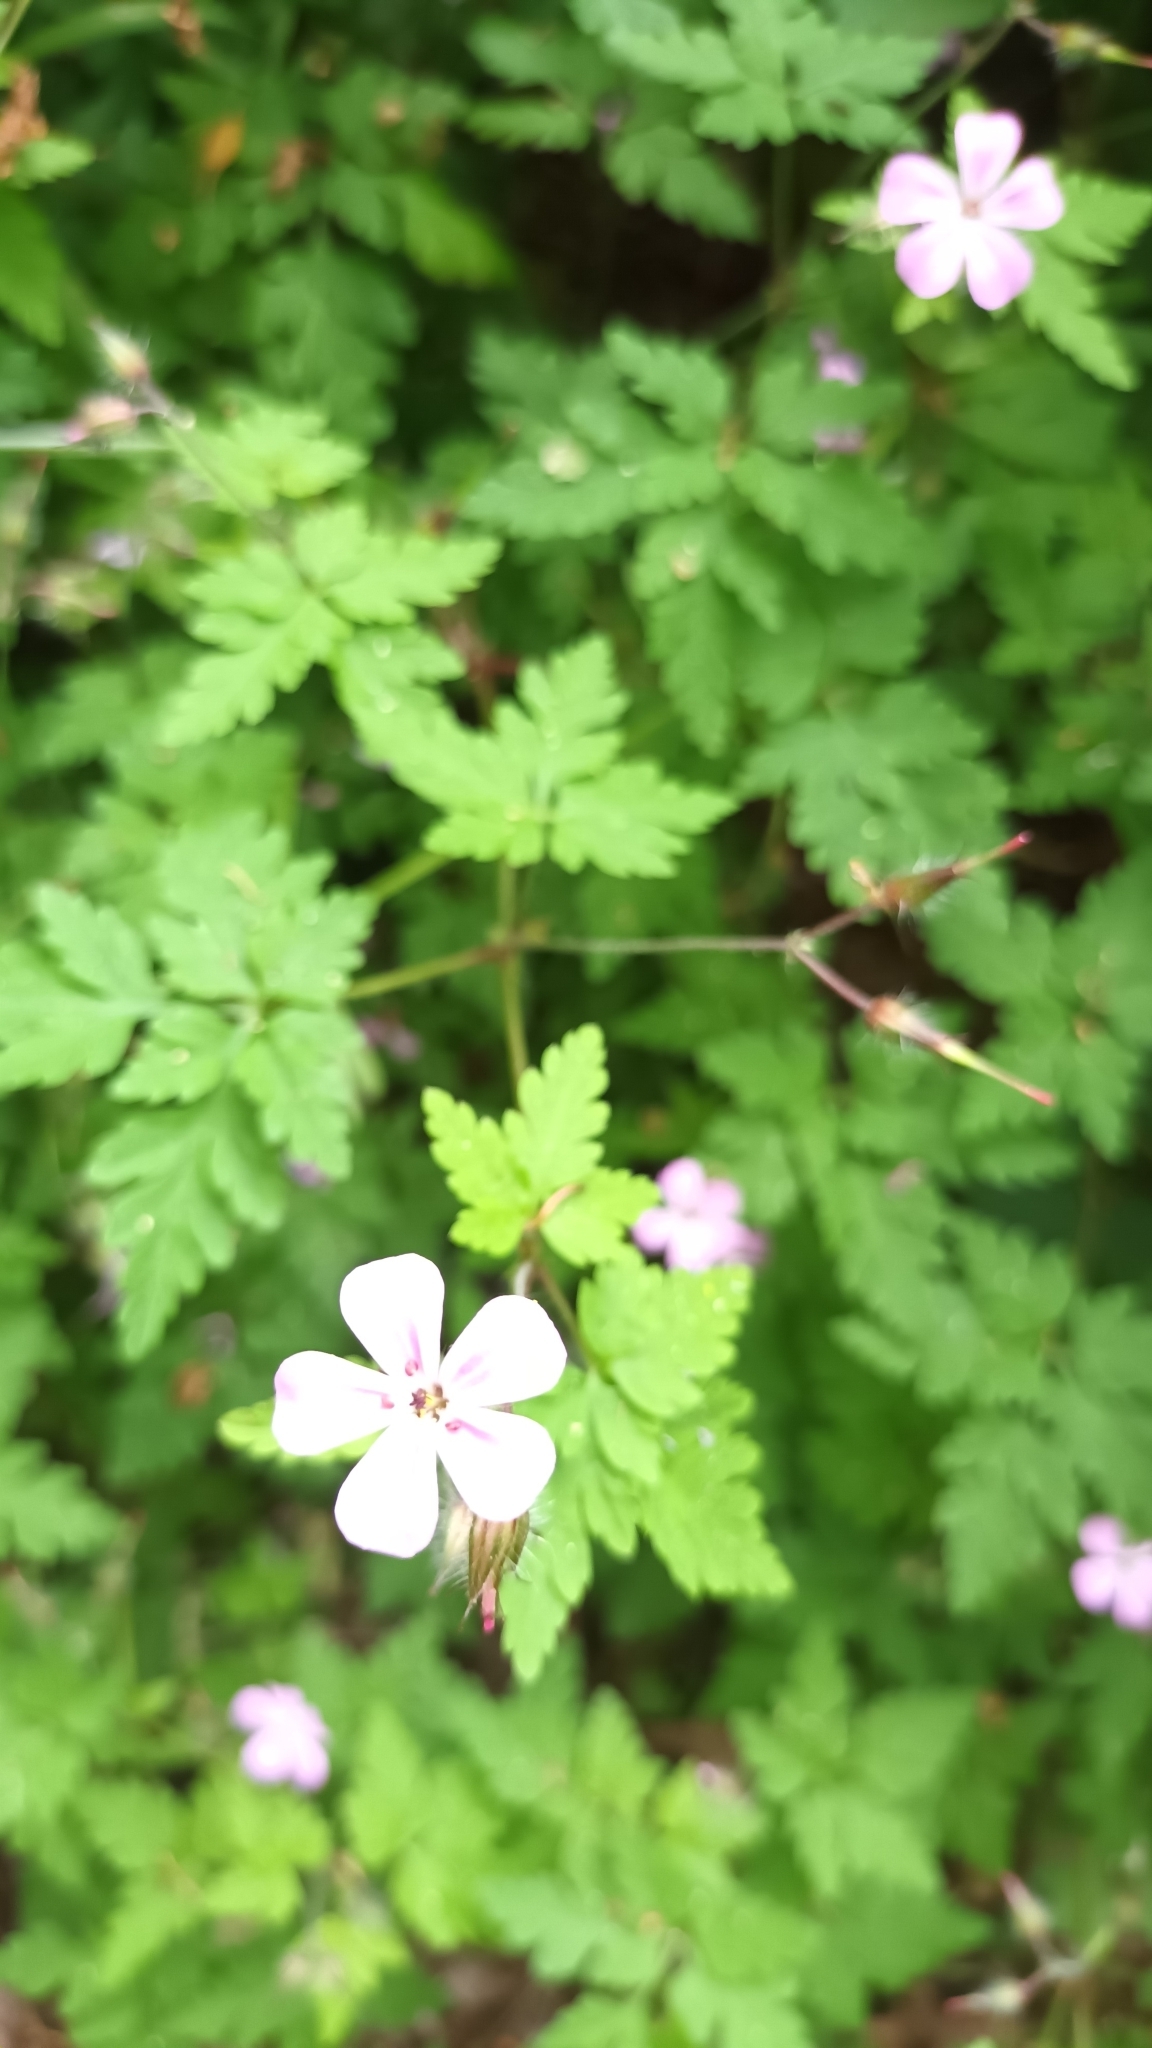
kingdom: Plantae
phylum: Tracheophyta
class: Magnoliopsida
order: Geraniales
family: Geraniaceae
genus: Geranium
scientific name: Geranium robertianum
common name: Herb-robert
